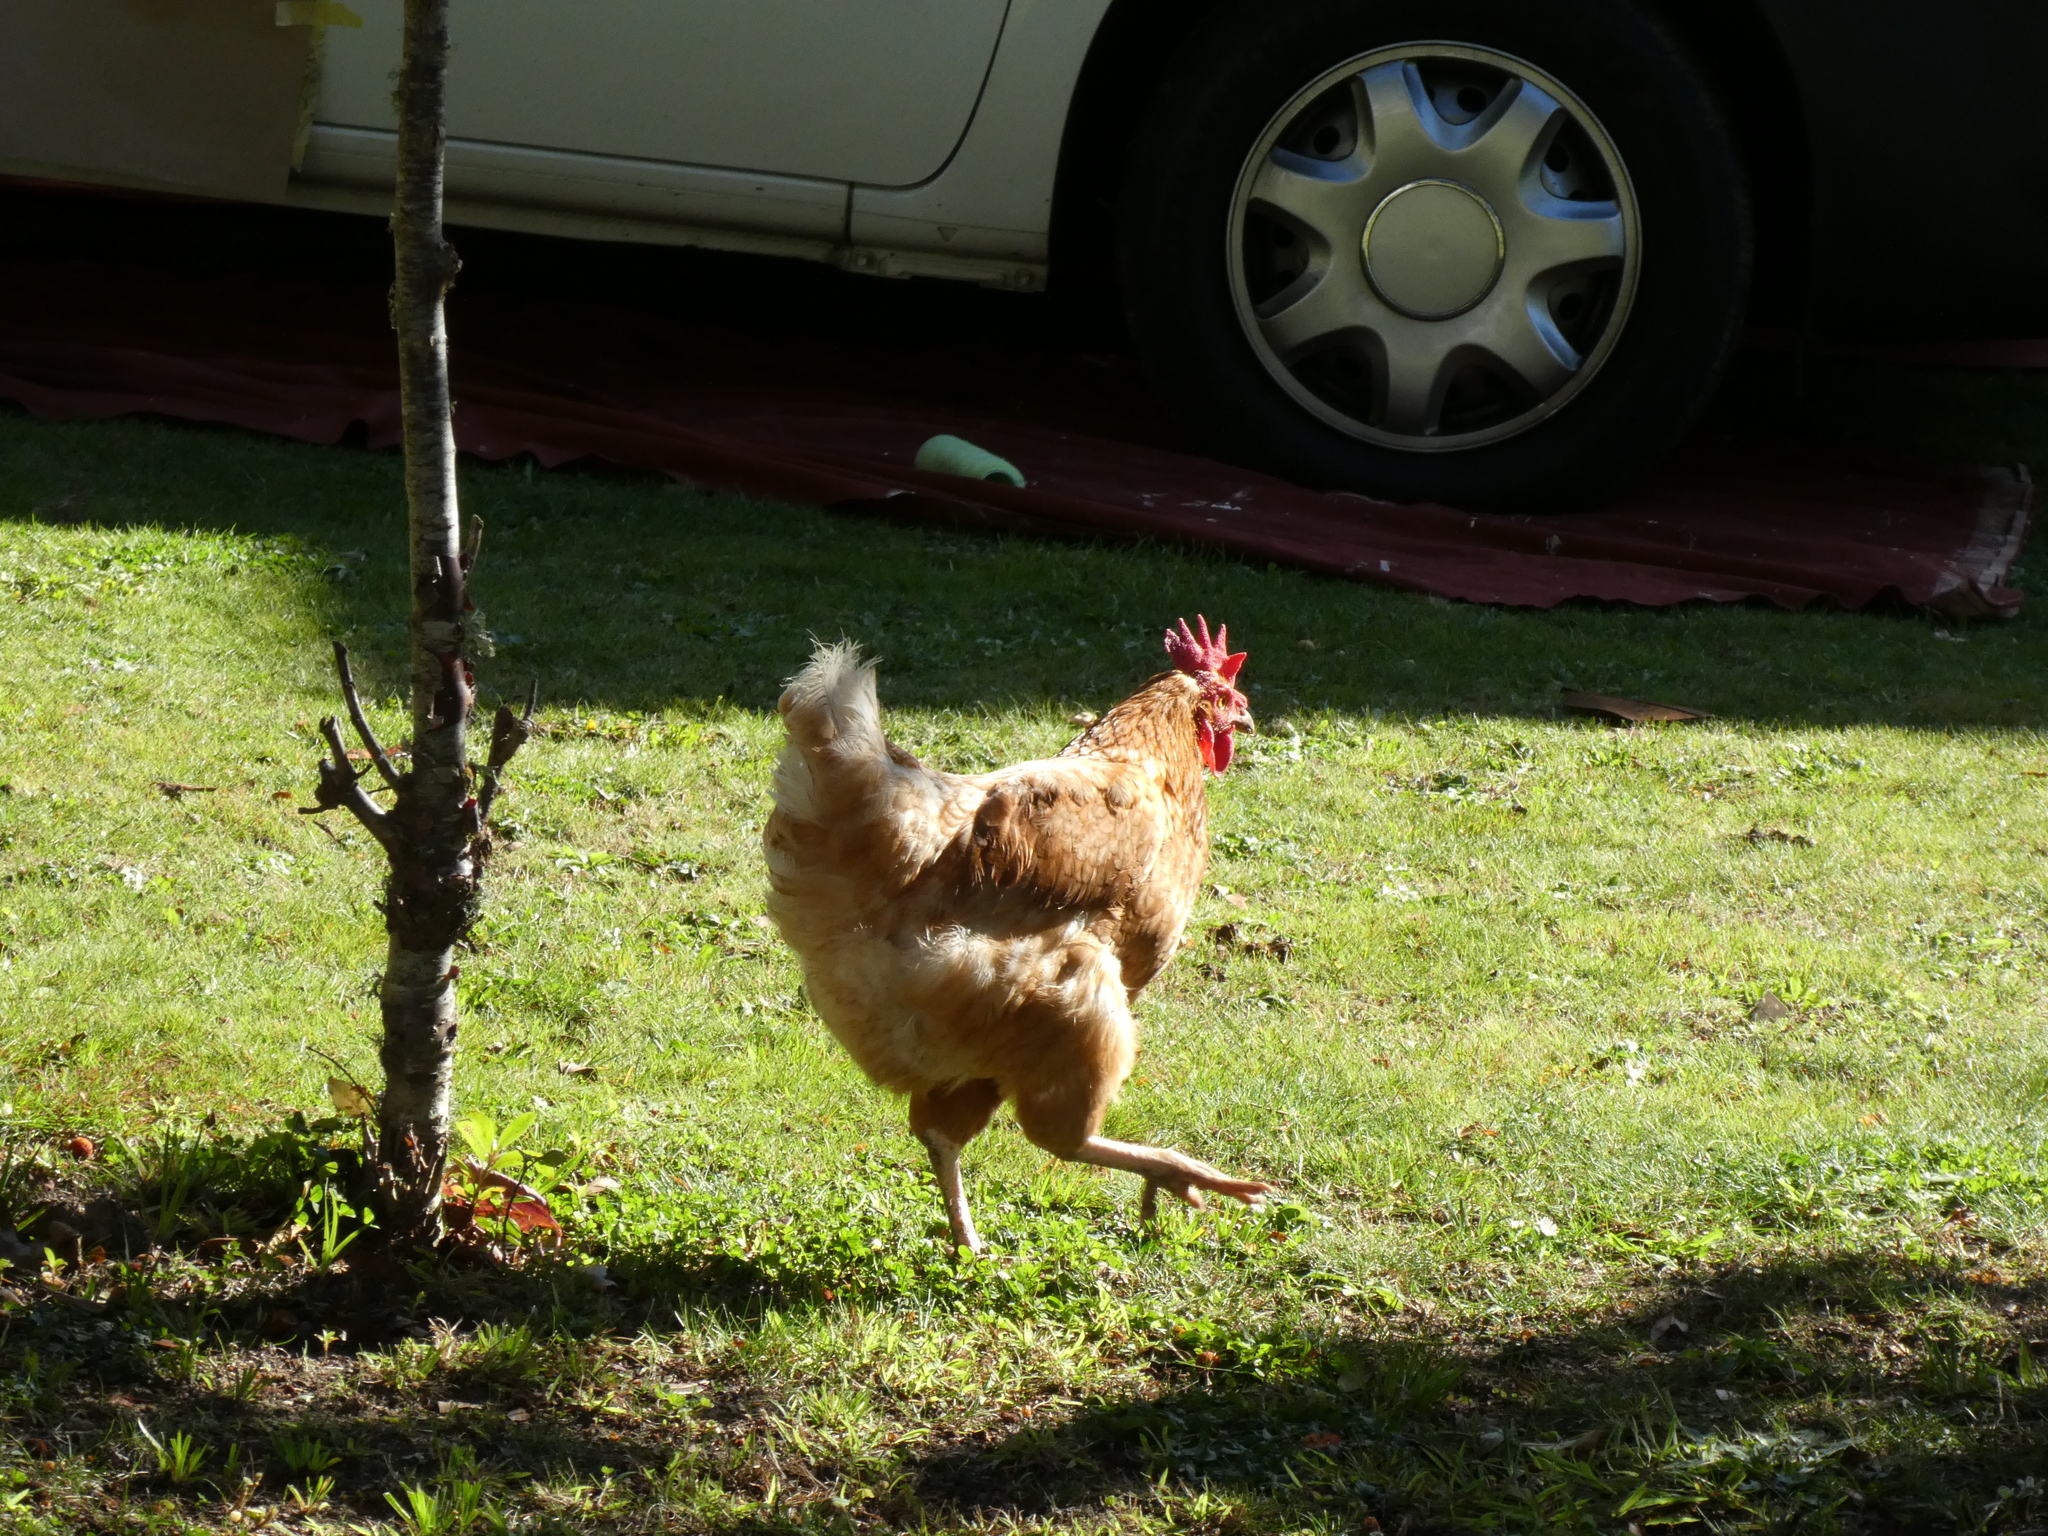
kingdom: Animalia
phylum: Chordata
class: Aves
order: Galliformes
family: Phasianidae
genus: Gallus
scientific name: Gallus gallus
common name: Red junglefowl
